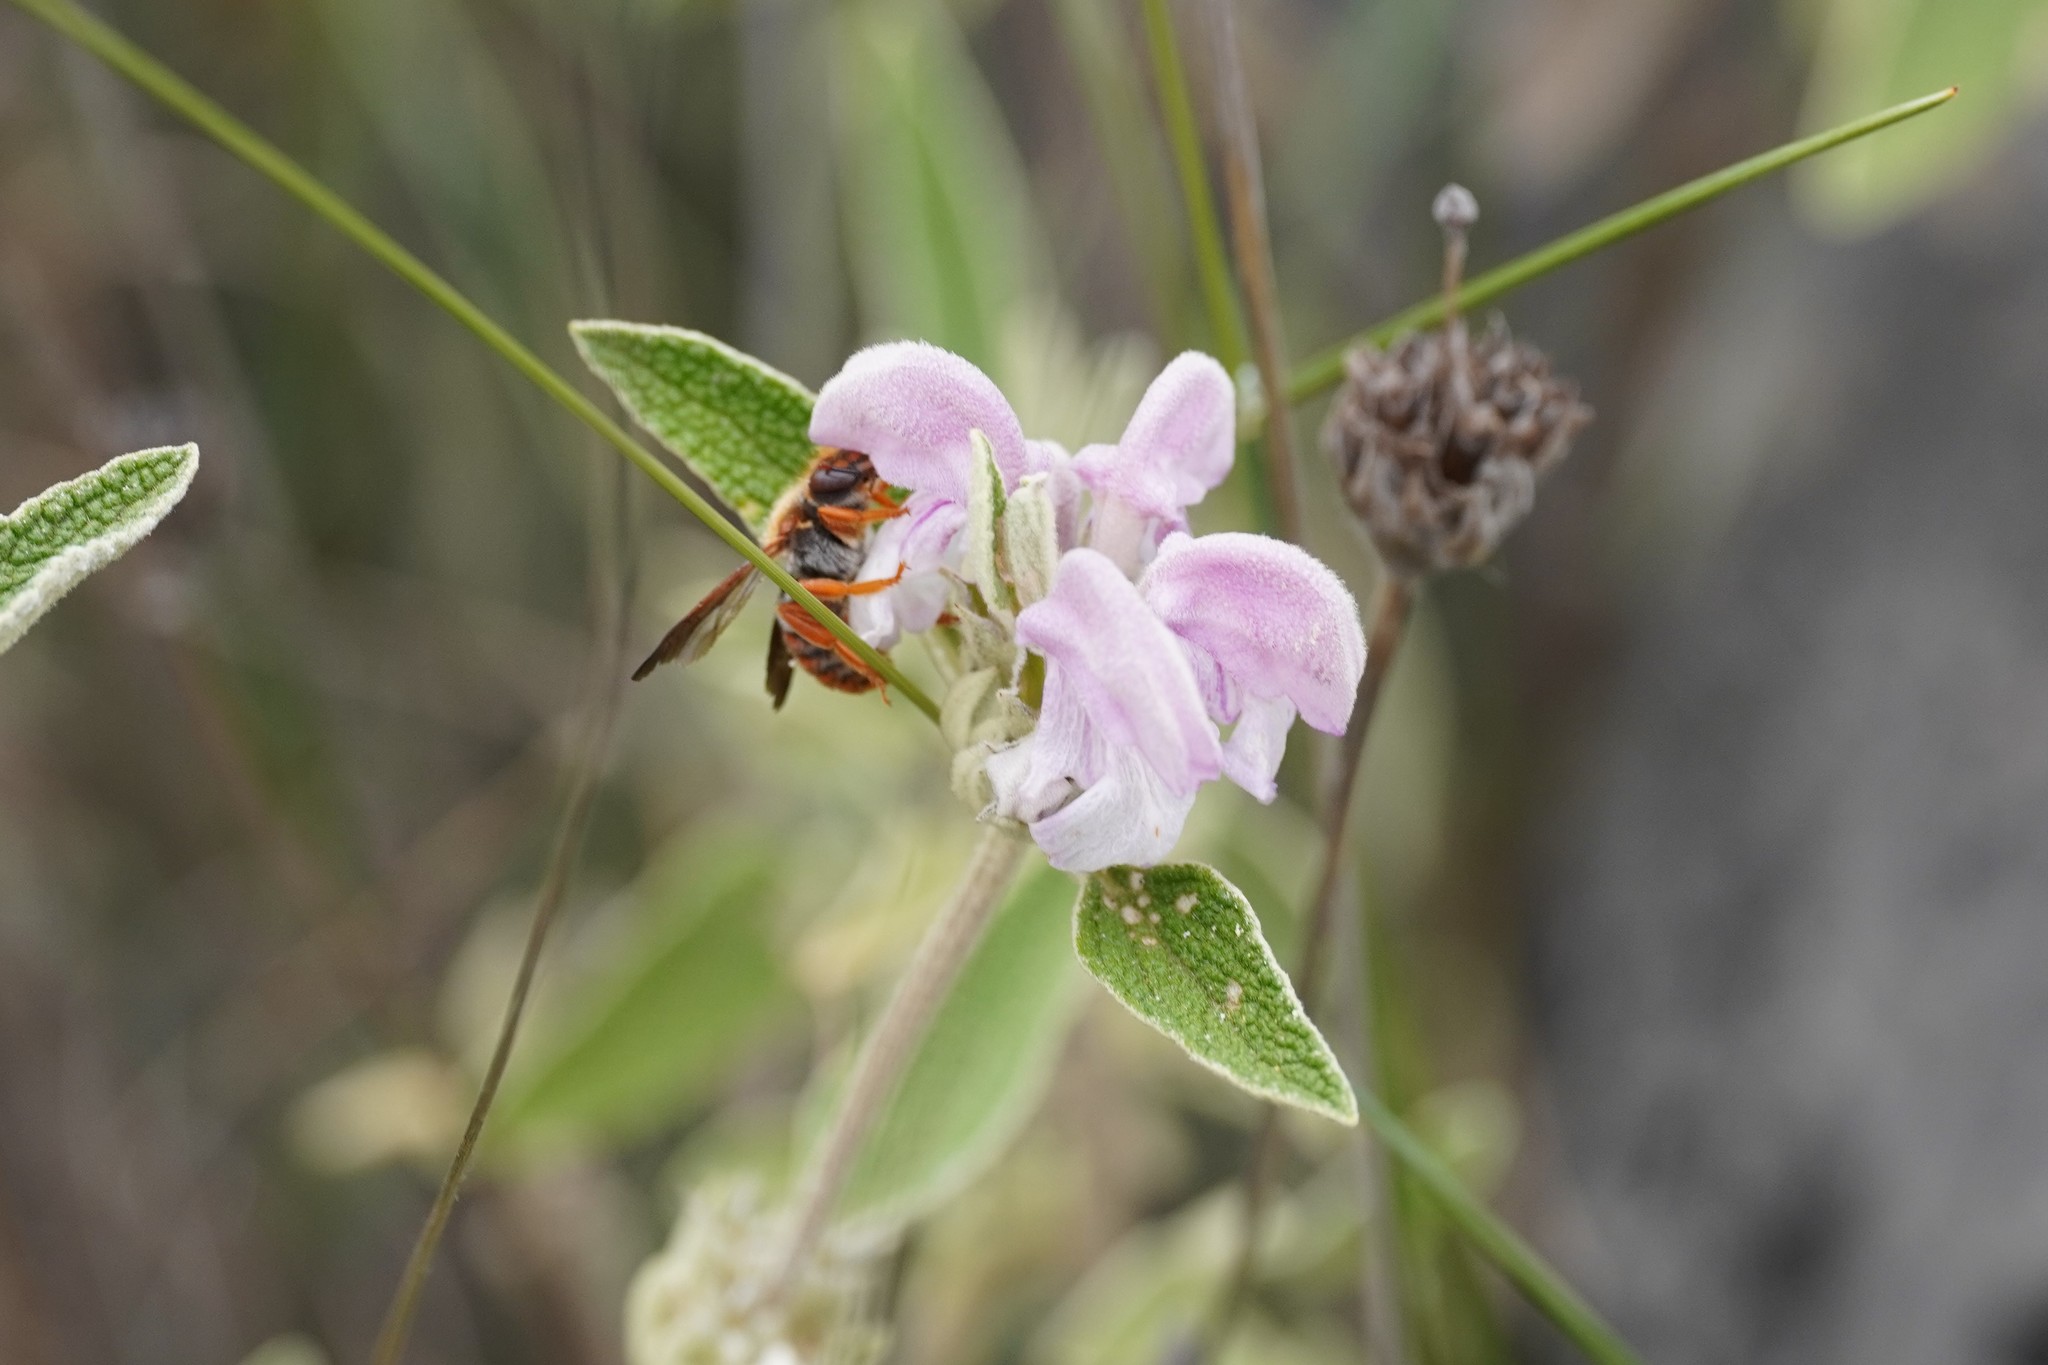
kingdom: Animalia
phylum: Arthropoda
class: Insecta
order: Hymenoptera
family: Megachilidae
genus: Rhodanthidium
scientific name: Rhodanthidium sticticum
